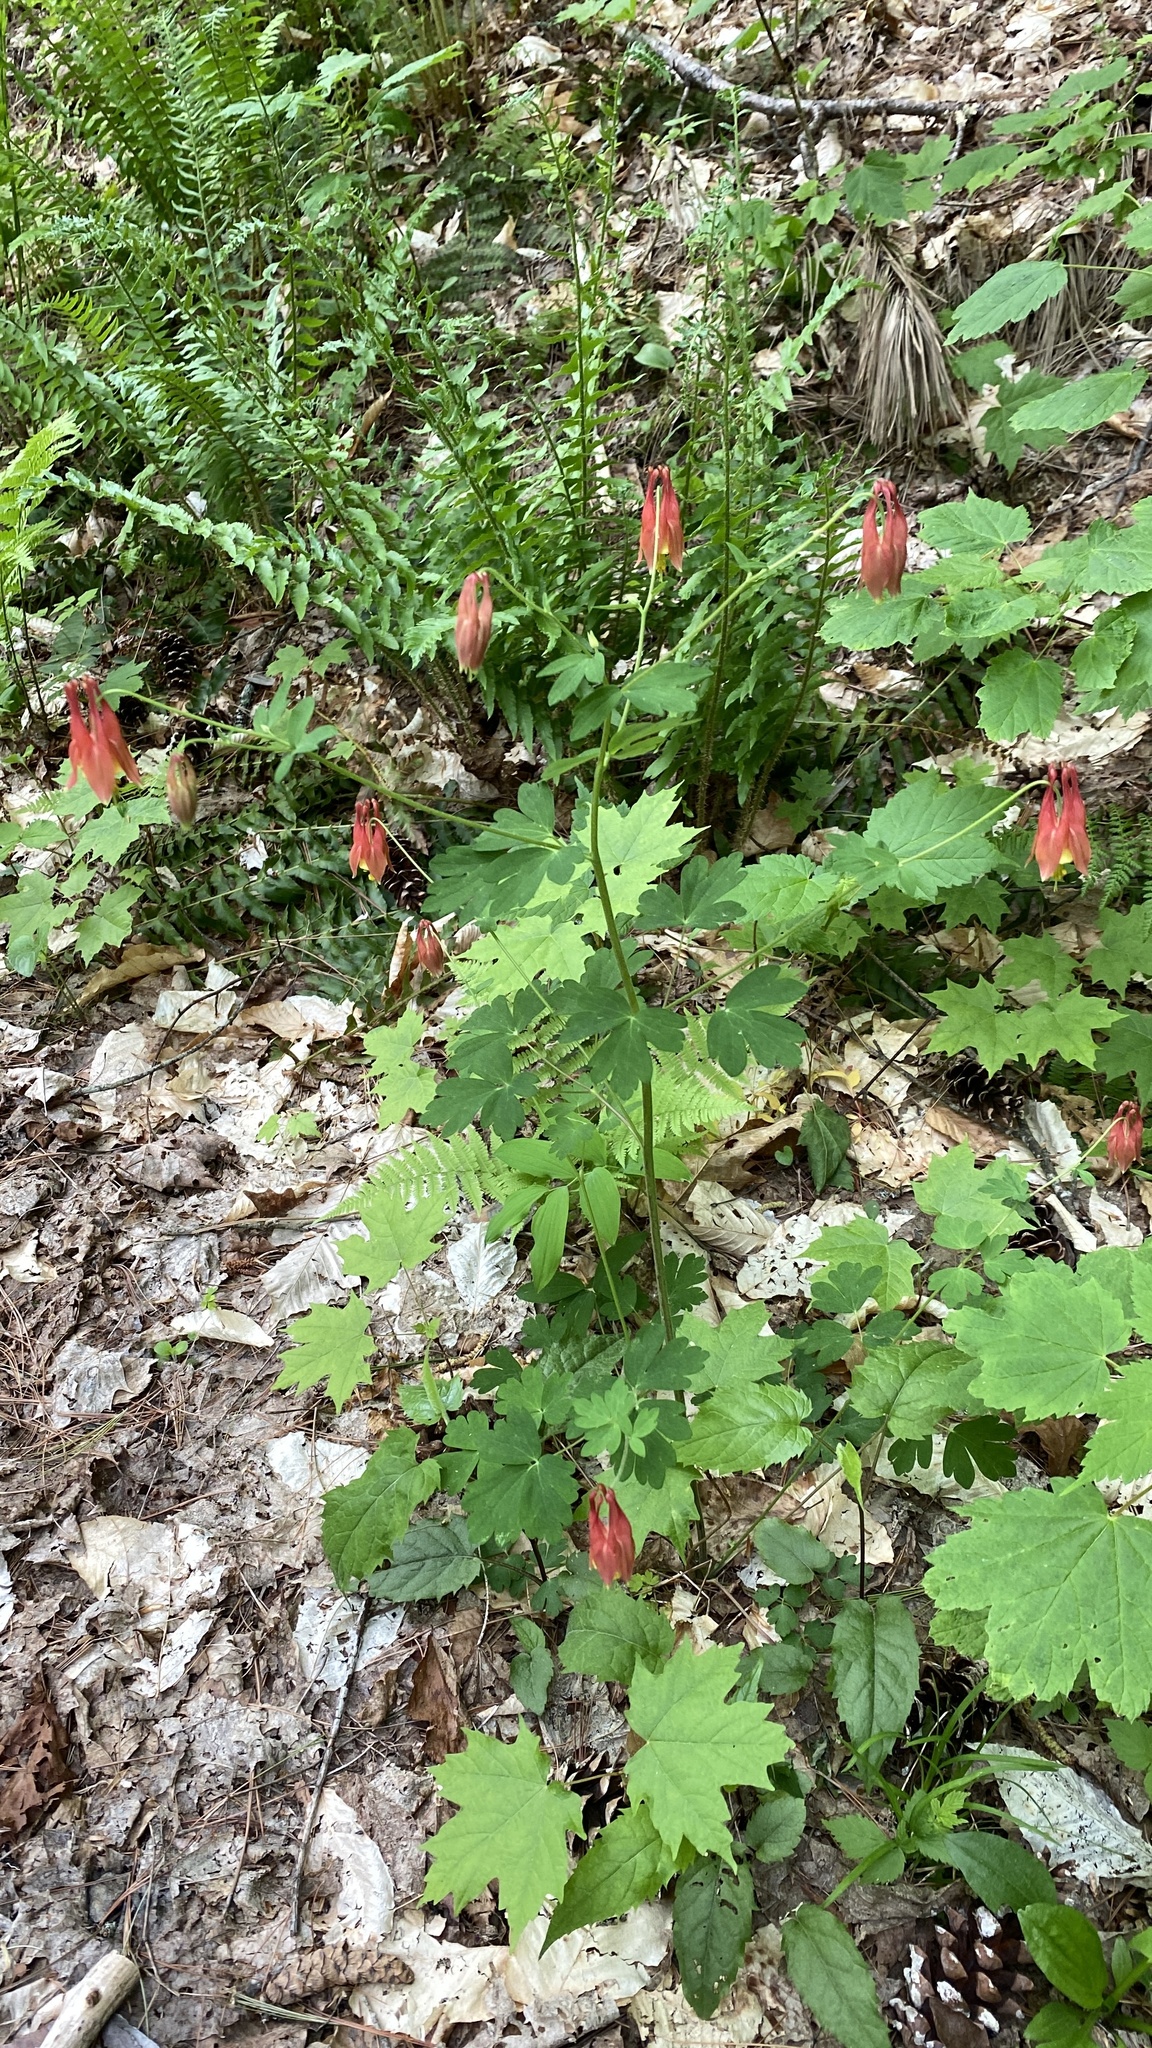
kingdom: Plantae
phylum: Tracheophyta
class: Magnoliopsida
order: Ranunculales
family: Ranunculaceae
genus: Aquilegia
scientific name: Aquilegia canadensis
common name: American columbine
